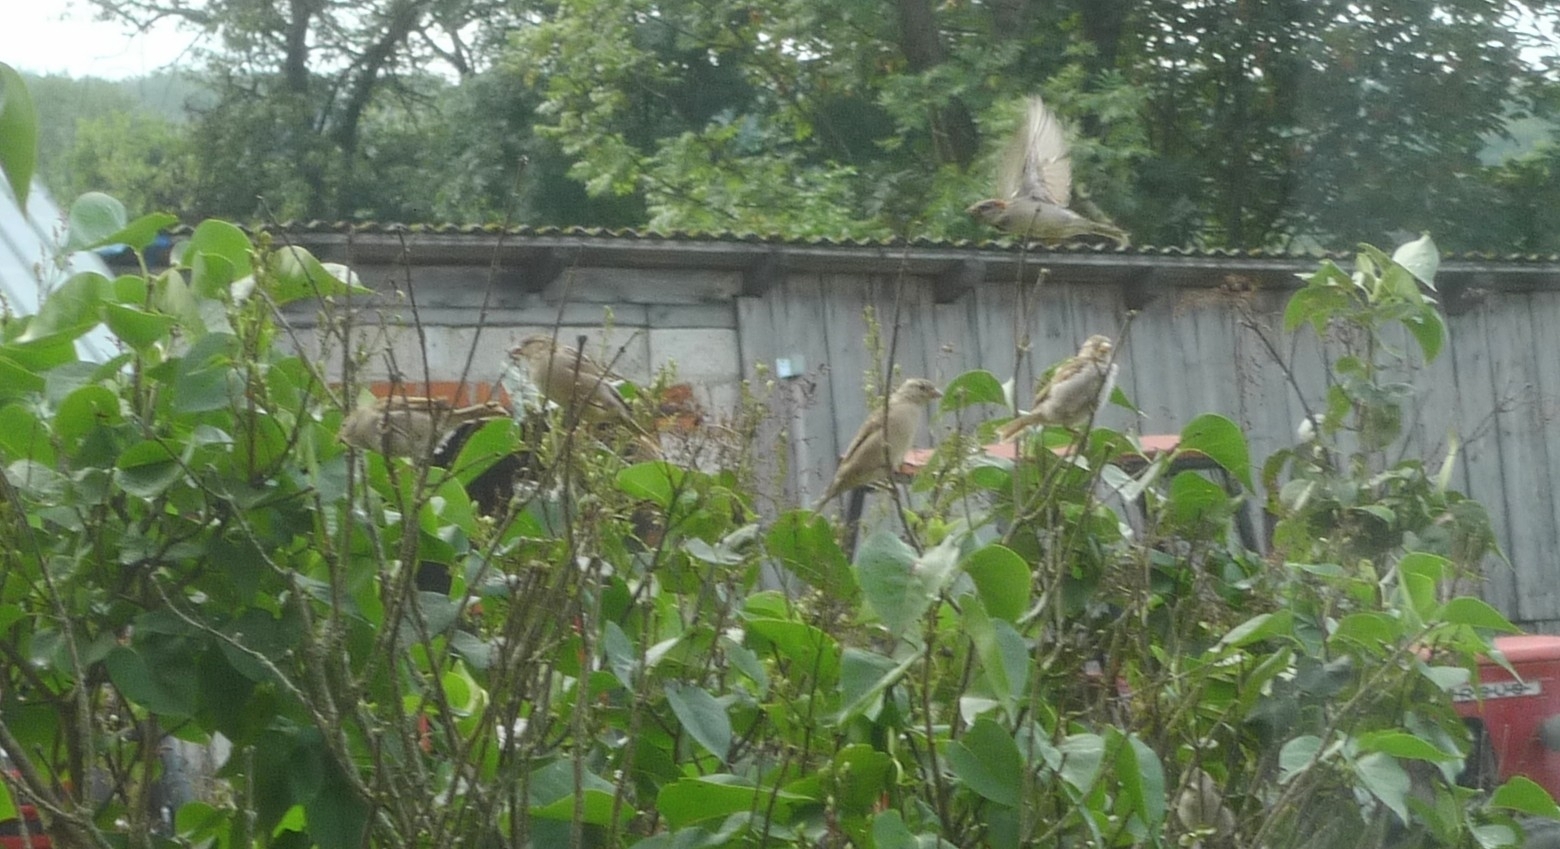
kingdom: Animalia
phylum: Chordata
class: Aves
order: Passeriformes
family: Passeridae
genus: Passer
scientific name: Passer domesticus
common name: House sparrow
